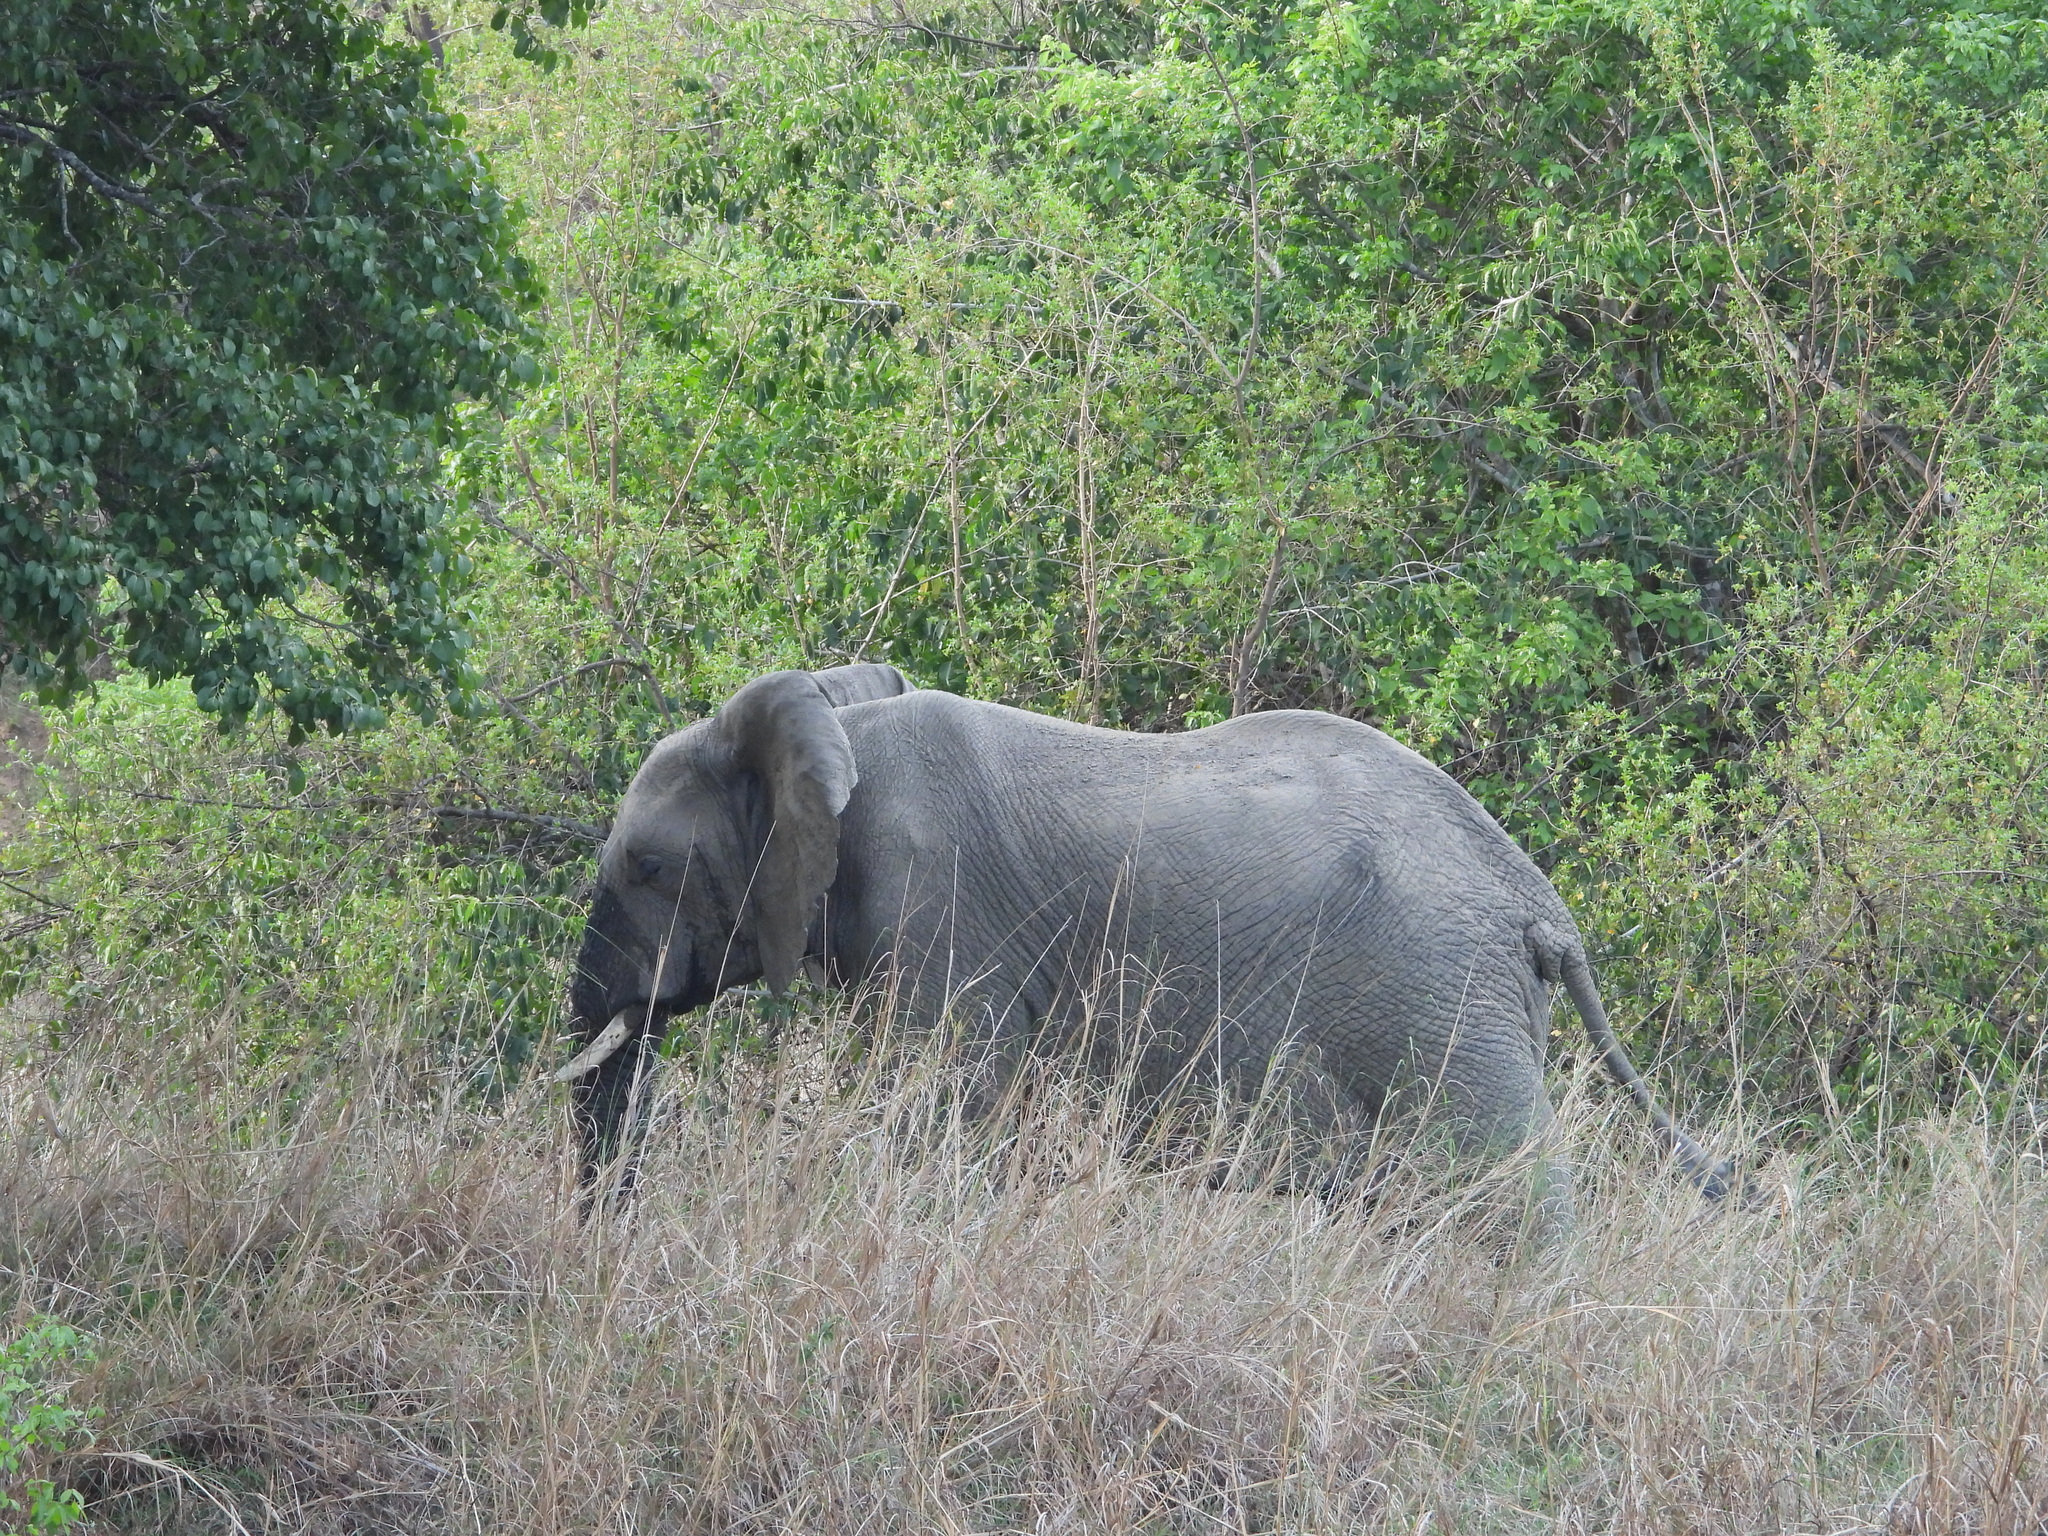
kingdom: Animalia
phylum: Chordata
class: Mammalia
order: Proboscidea
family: Elephantidae
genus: Loxodonta
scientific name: Loxodonta africana
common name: African elephant
